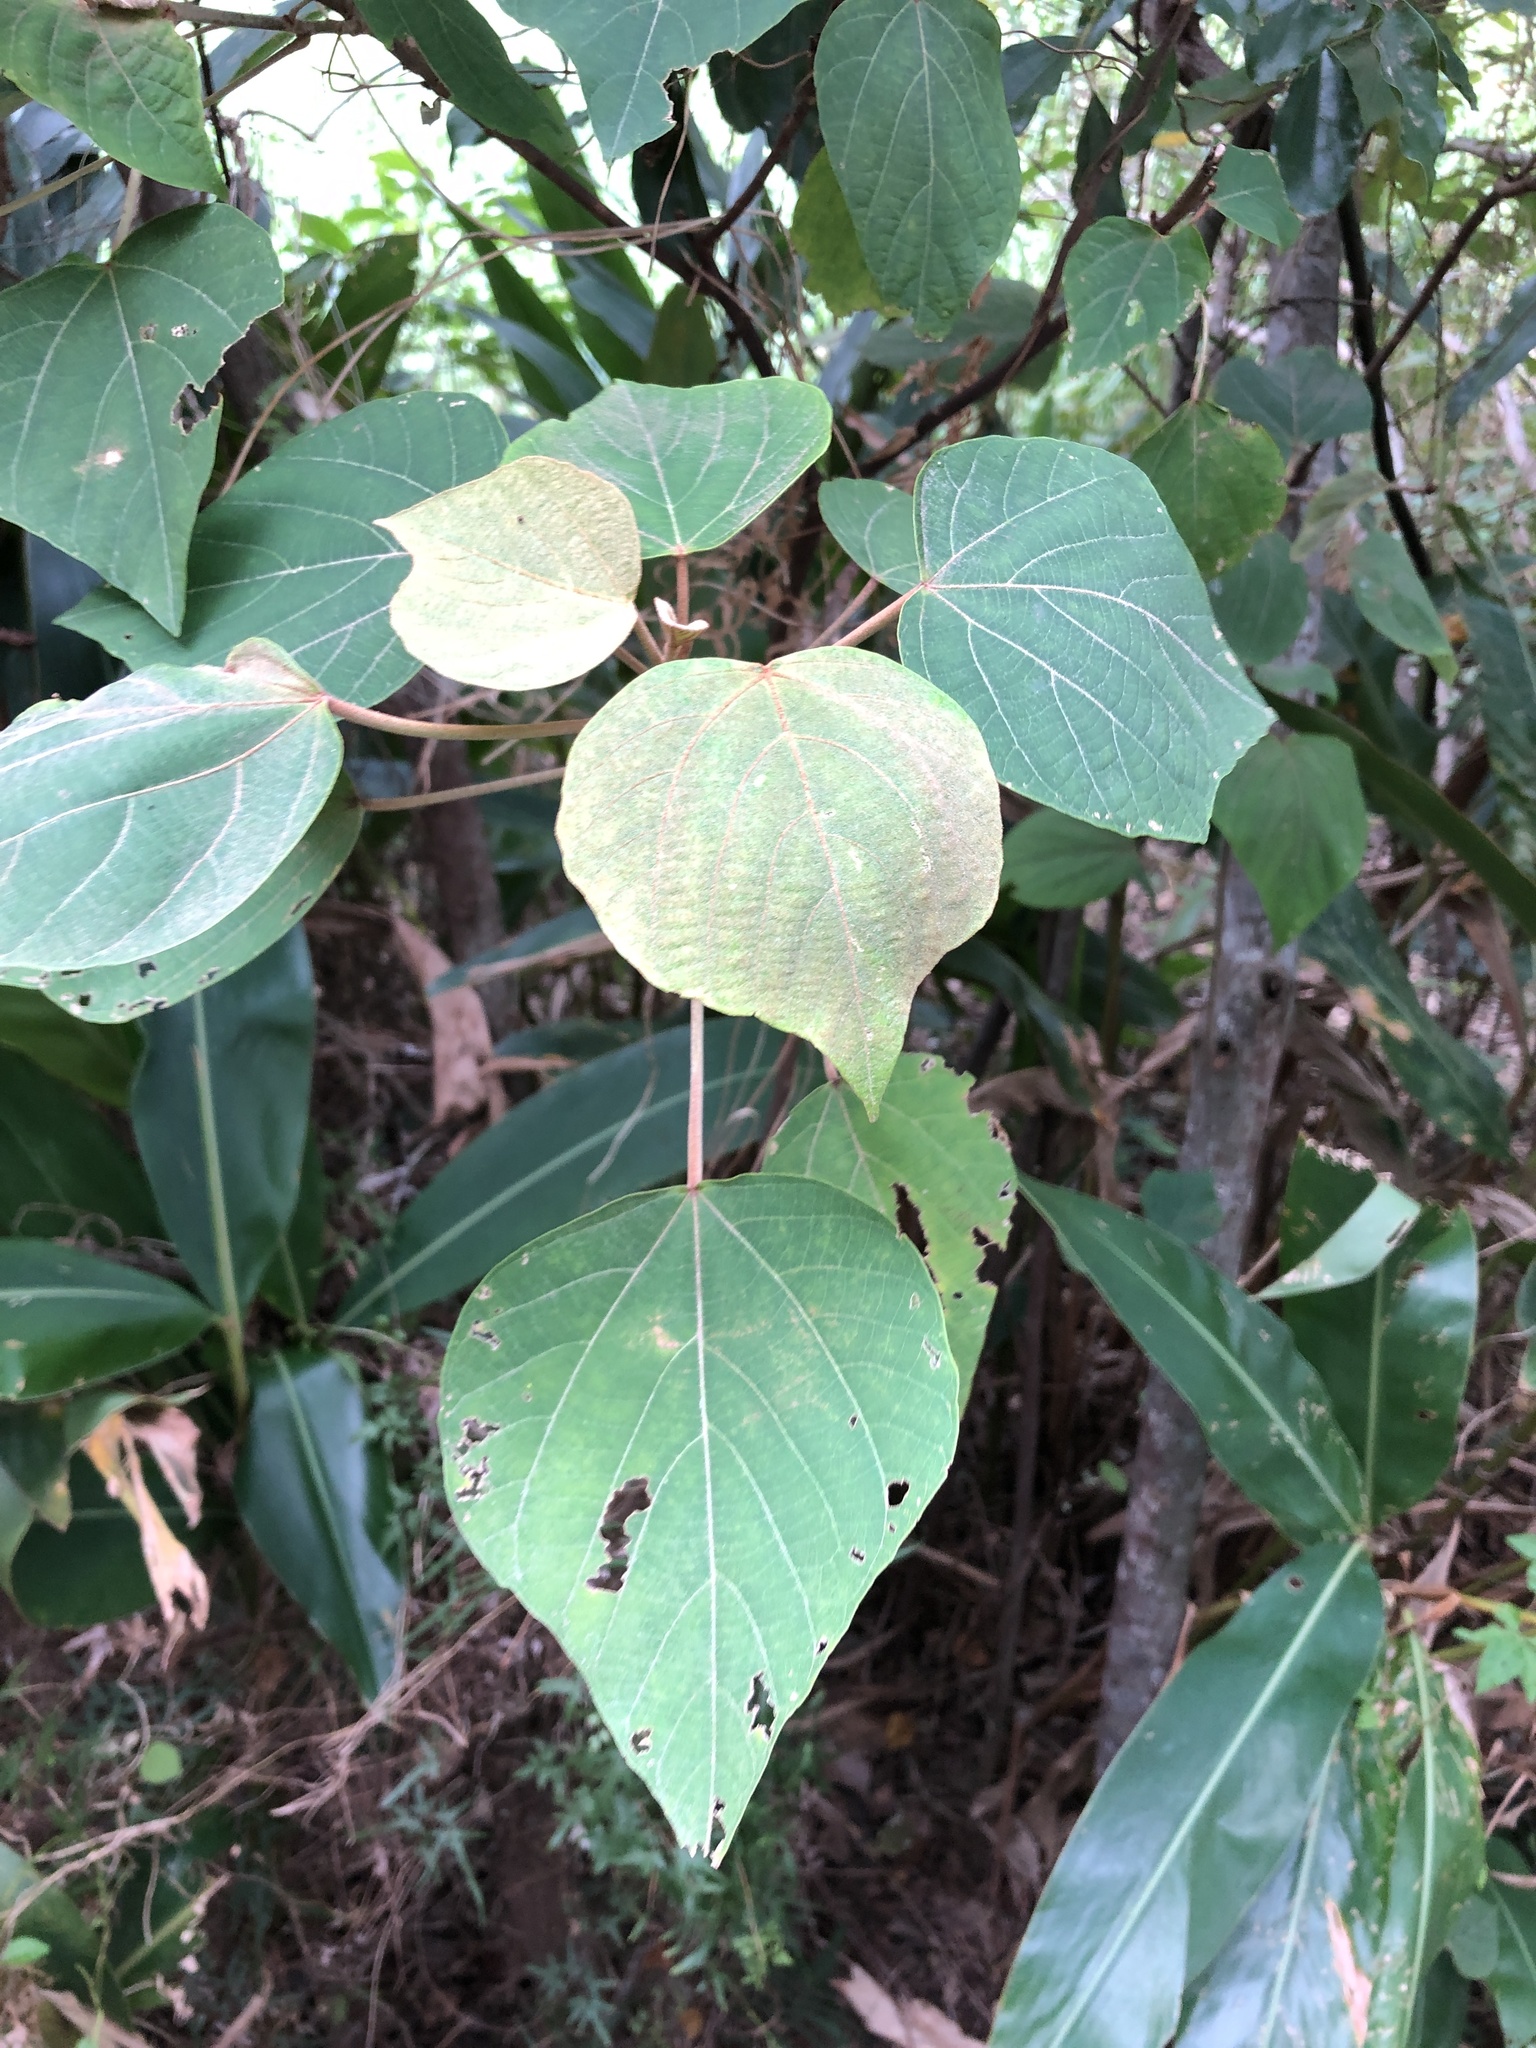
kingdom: Plantae
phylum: Tracheophyta
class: Magnoliopsida
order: Malpighiales
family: Euphorbiaceae
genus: Mallotus
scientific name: Mallotus japonicus
